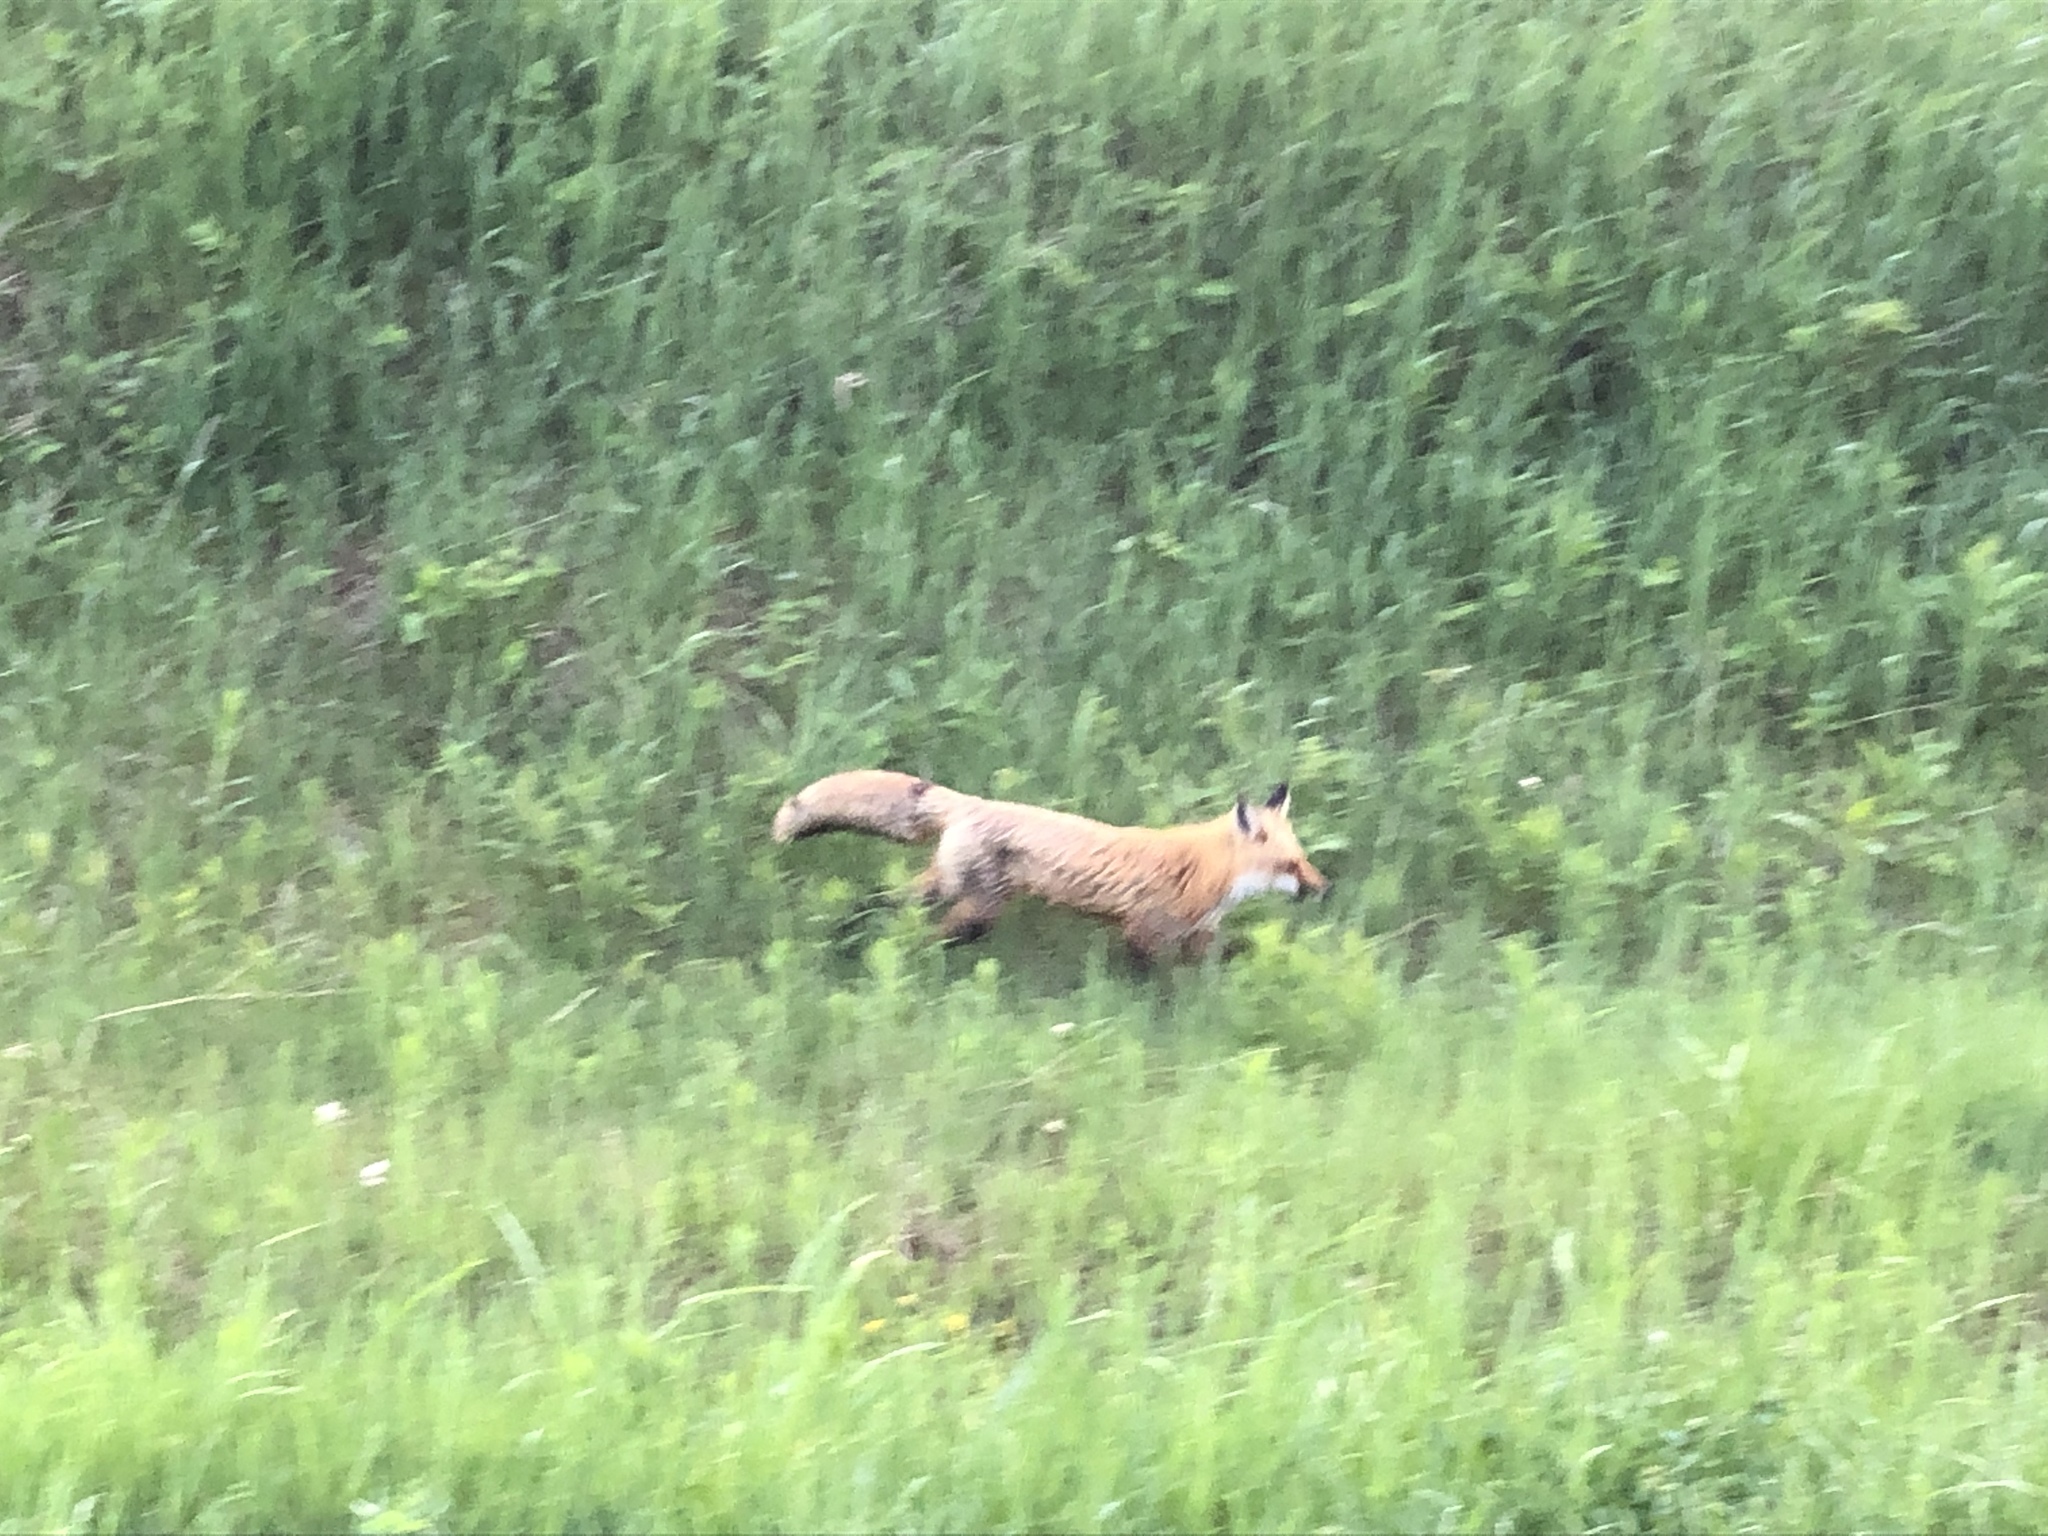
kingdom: Animalia
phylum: Chordata
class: Mammalia
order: Carnivora
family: Canidae
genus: Vulpes
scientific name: Vulpes vulpes
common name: Red fox
